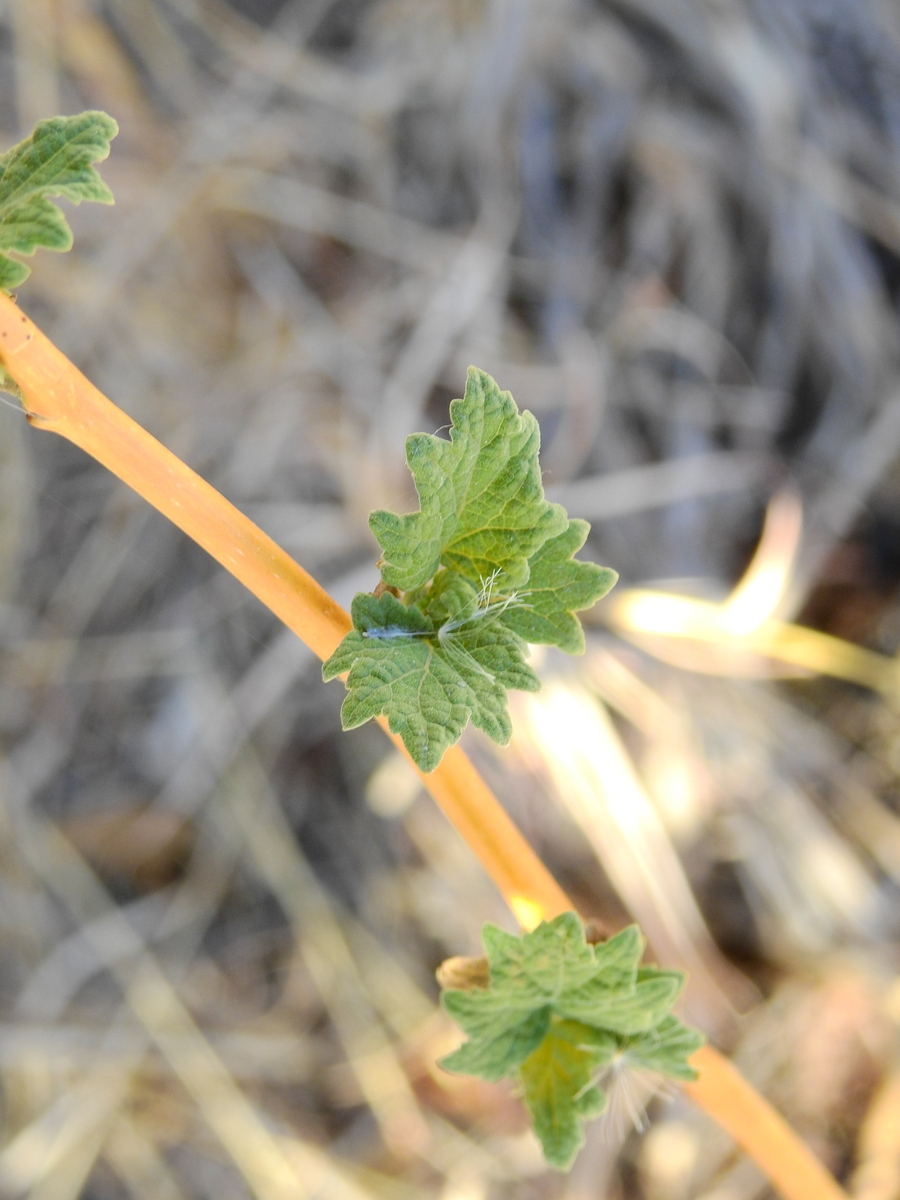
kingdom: Plantae
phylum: Tracheophyta
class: Magnoliopsida
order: Asterales
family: Asteraceae
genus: Jungia
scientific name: Jungia polita
